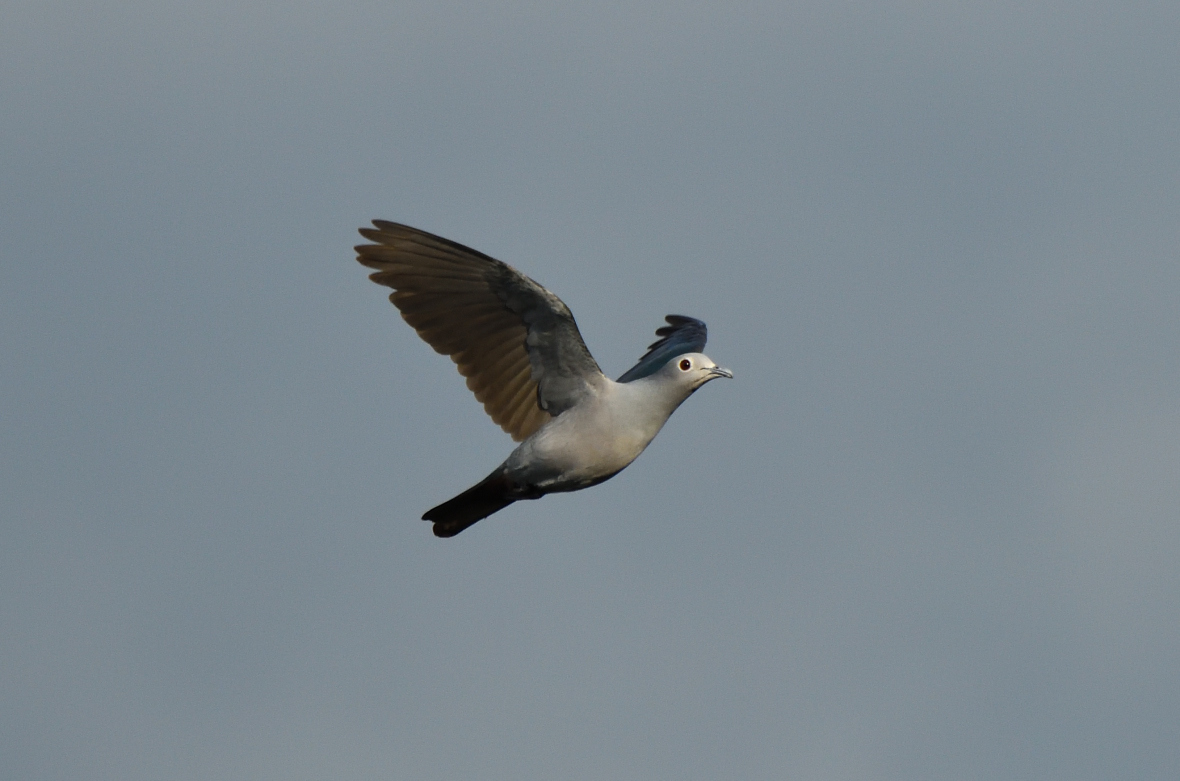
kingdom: Animalia
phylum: Chordata
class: Aves
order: Columbiformes
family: Columbidae
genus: Ducula
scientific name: Ducula aenea
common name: Green imperial pigeon
